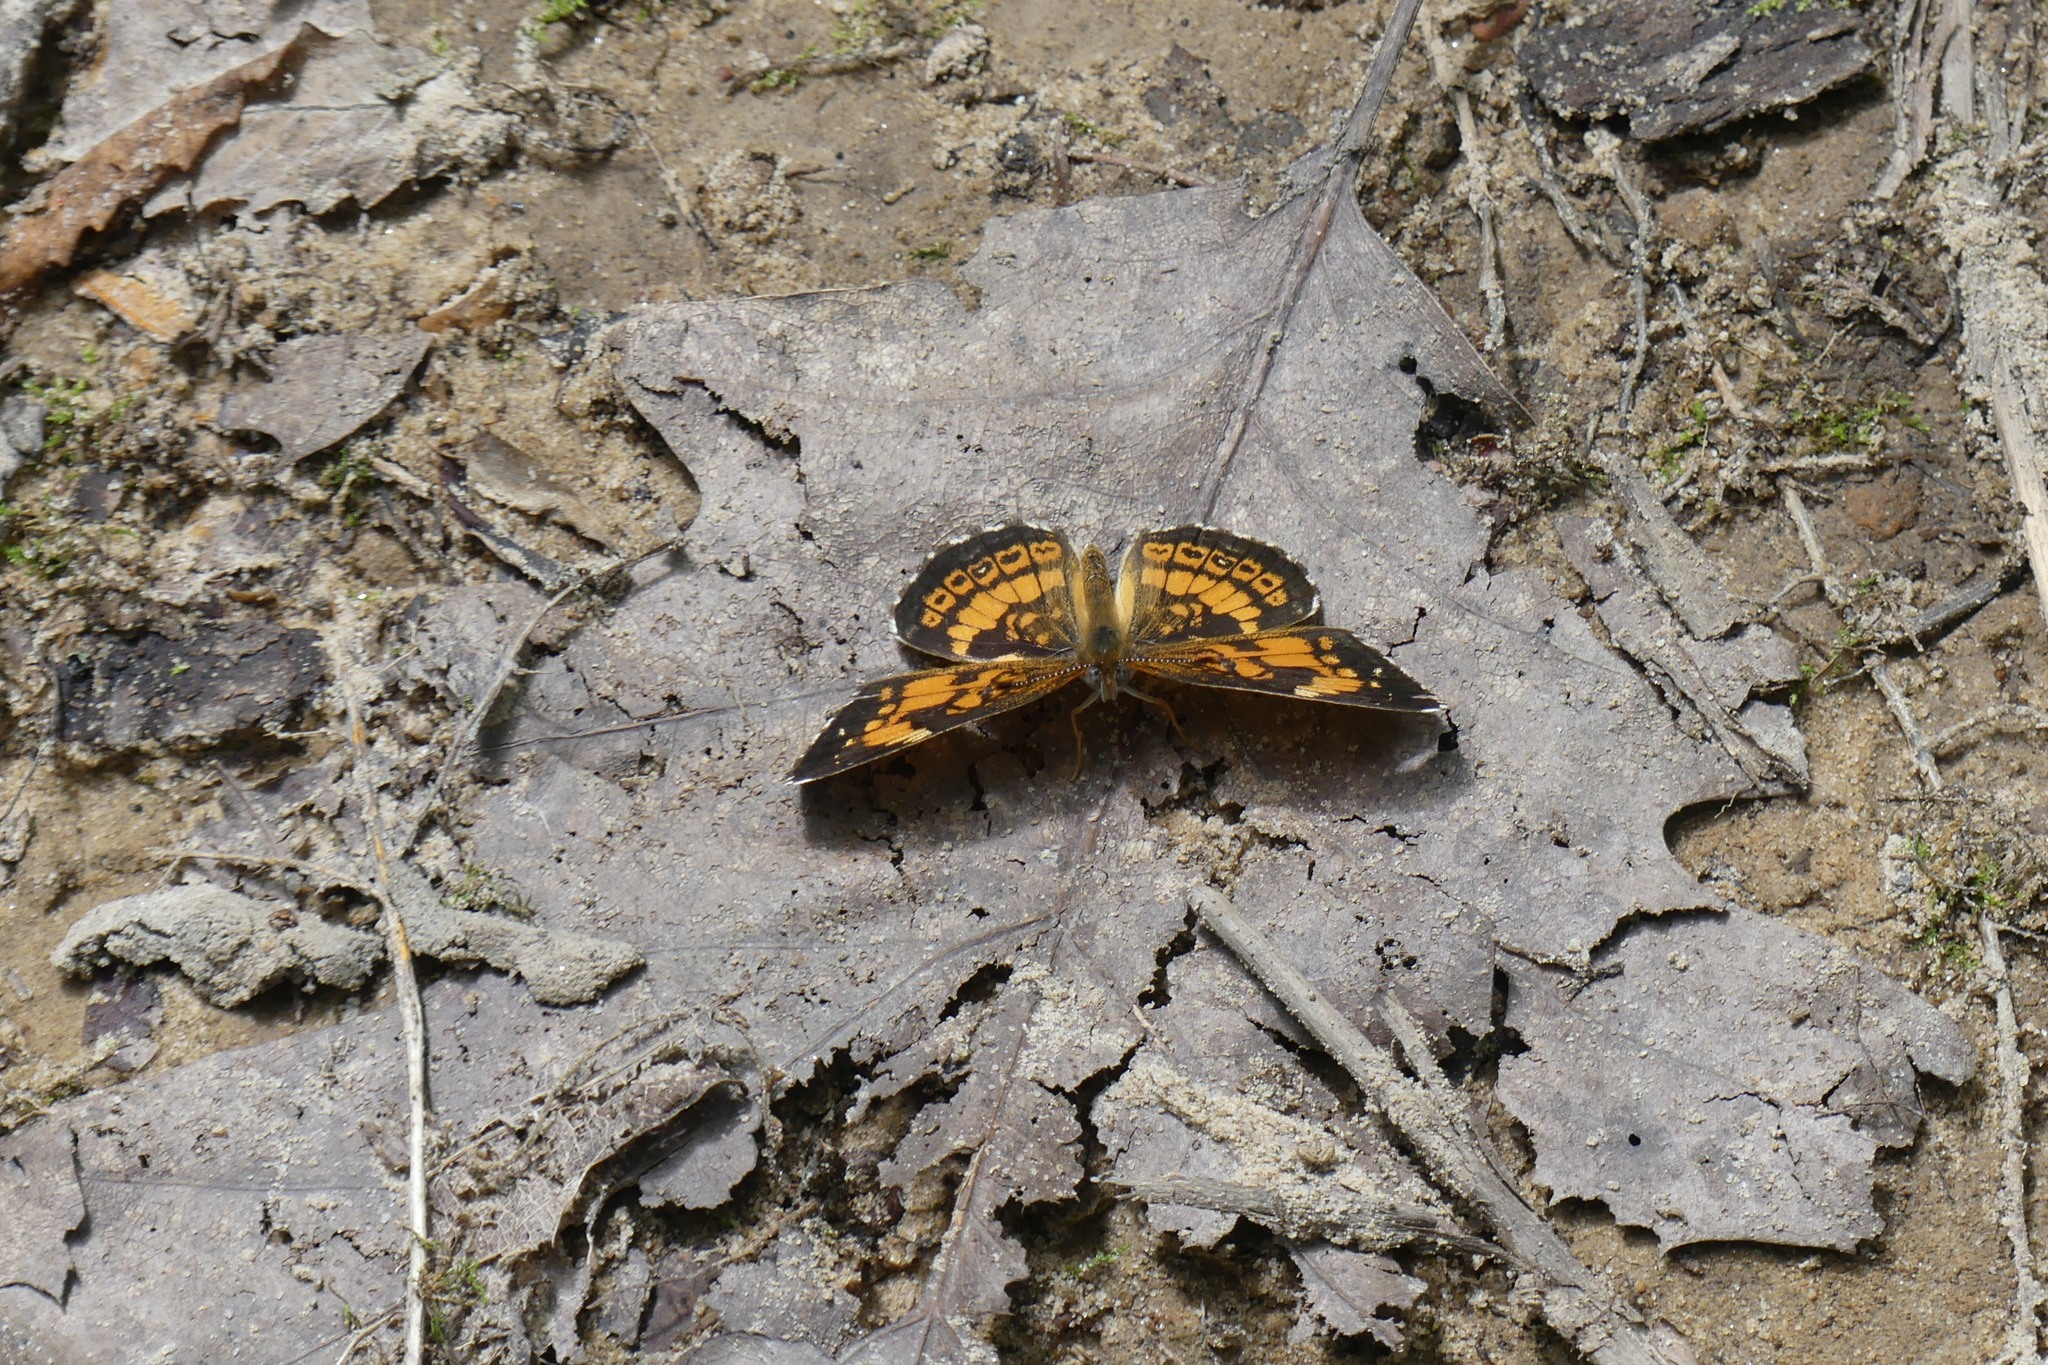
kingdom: Animalia
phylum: Arthropoda
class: Insecta
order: Lepidoptera
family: Nymphalidae
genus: Chlosyne
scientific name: Chlosyne nycteis
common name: Silvery checkerspot
